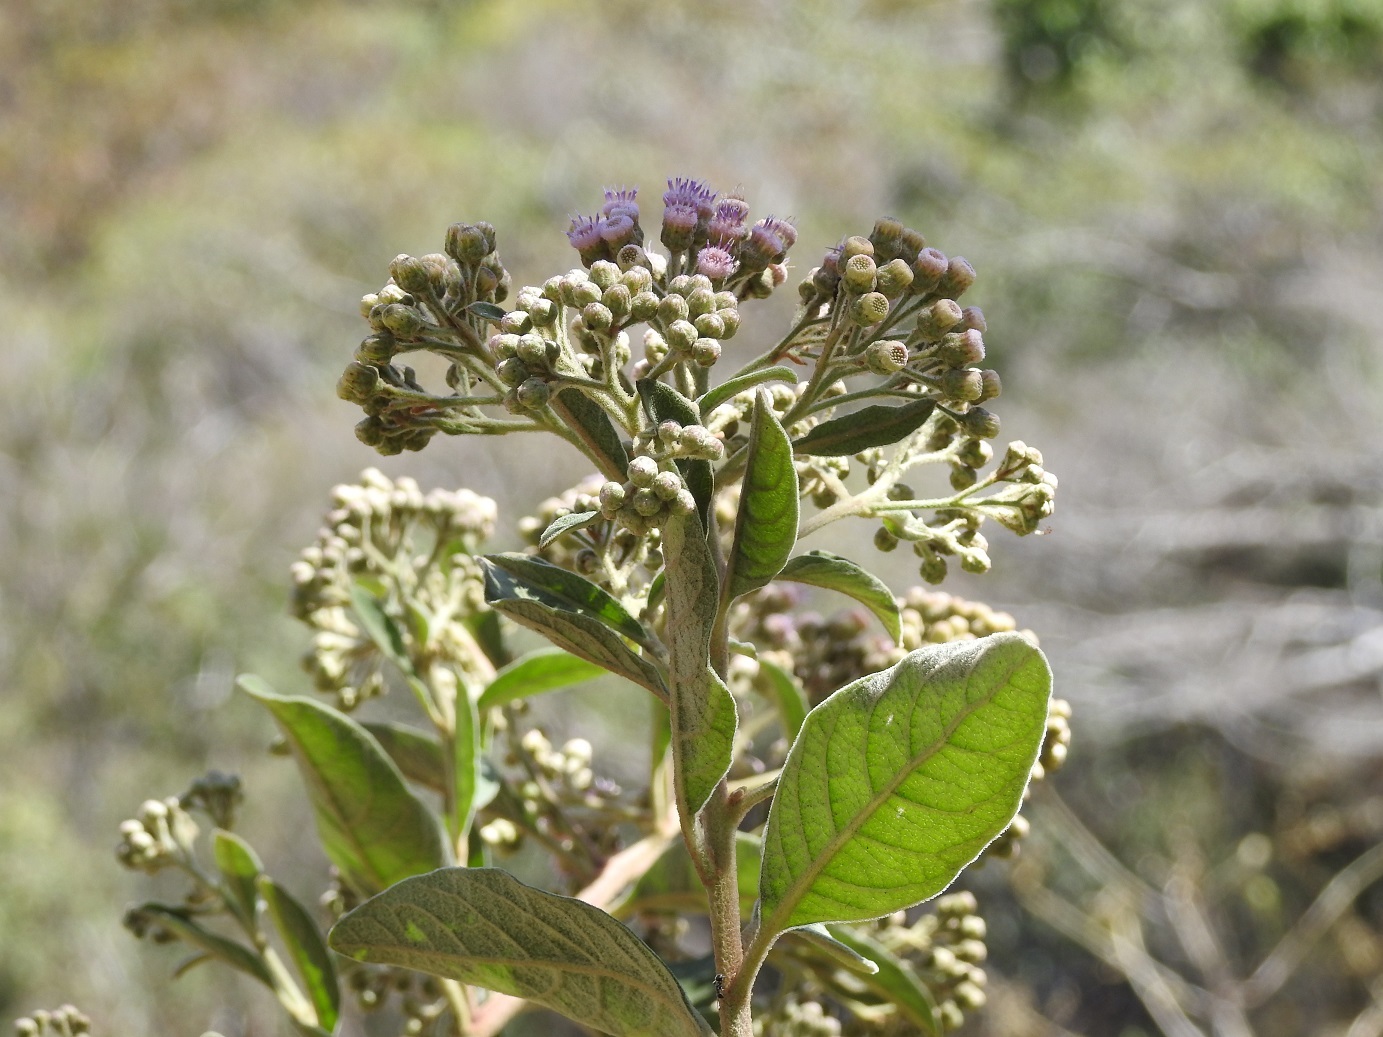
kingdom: Plantae
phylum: Tracheophyta
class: Magnoliopsida
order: Asterales
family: Asteraceae
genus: Pluchea
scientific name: Pluchea carolinensis
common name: Marsh fleabane
